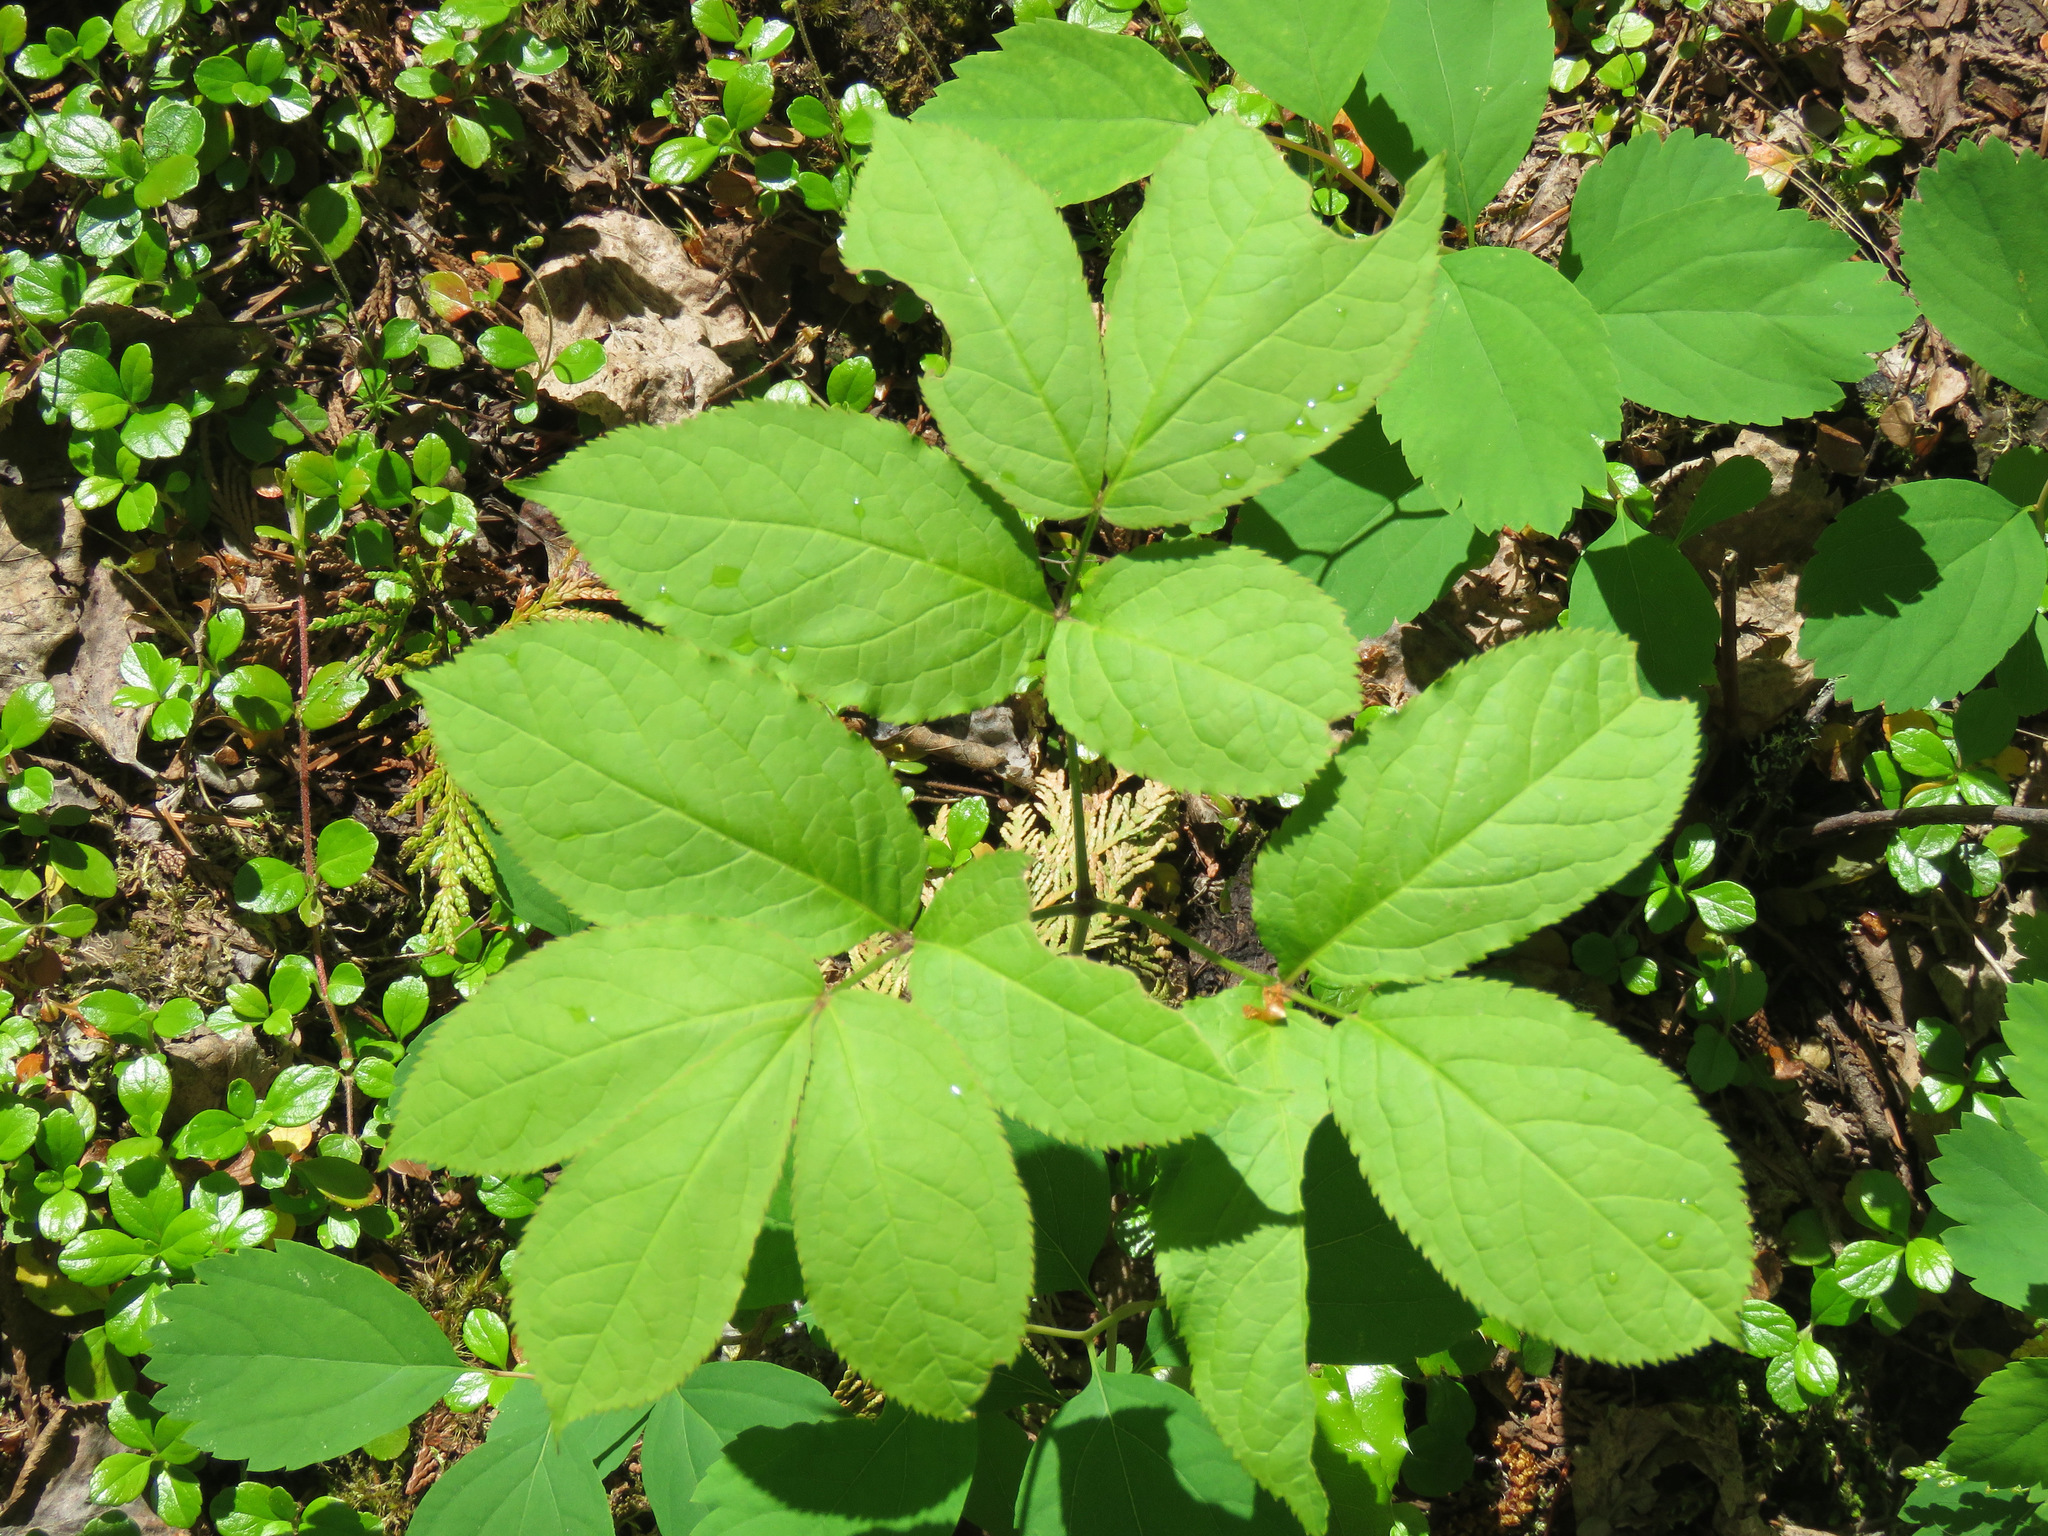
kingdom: Plantae
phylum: Tracheophyta
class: Magnoliopsida
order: Apiales
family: Araliaceae
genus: Aralia
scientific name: Aralia nudicaulis
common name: Wild sarsaparilla
